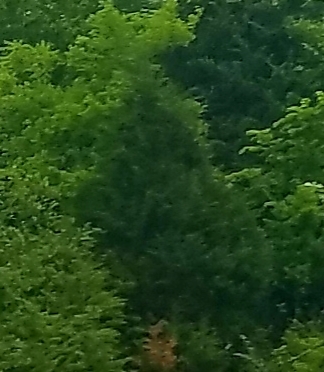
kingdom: Plantae
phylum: Tracheophyta
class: Pinopsida
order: Pinales
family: Cupressaceae
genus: Juniperus
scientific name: Juniperus virginiana
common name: Red juniper
